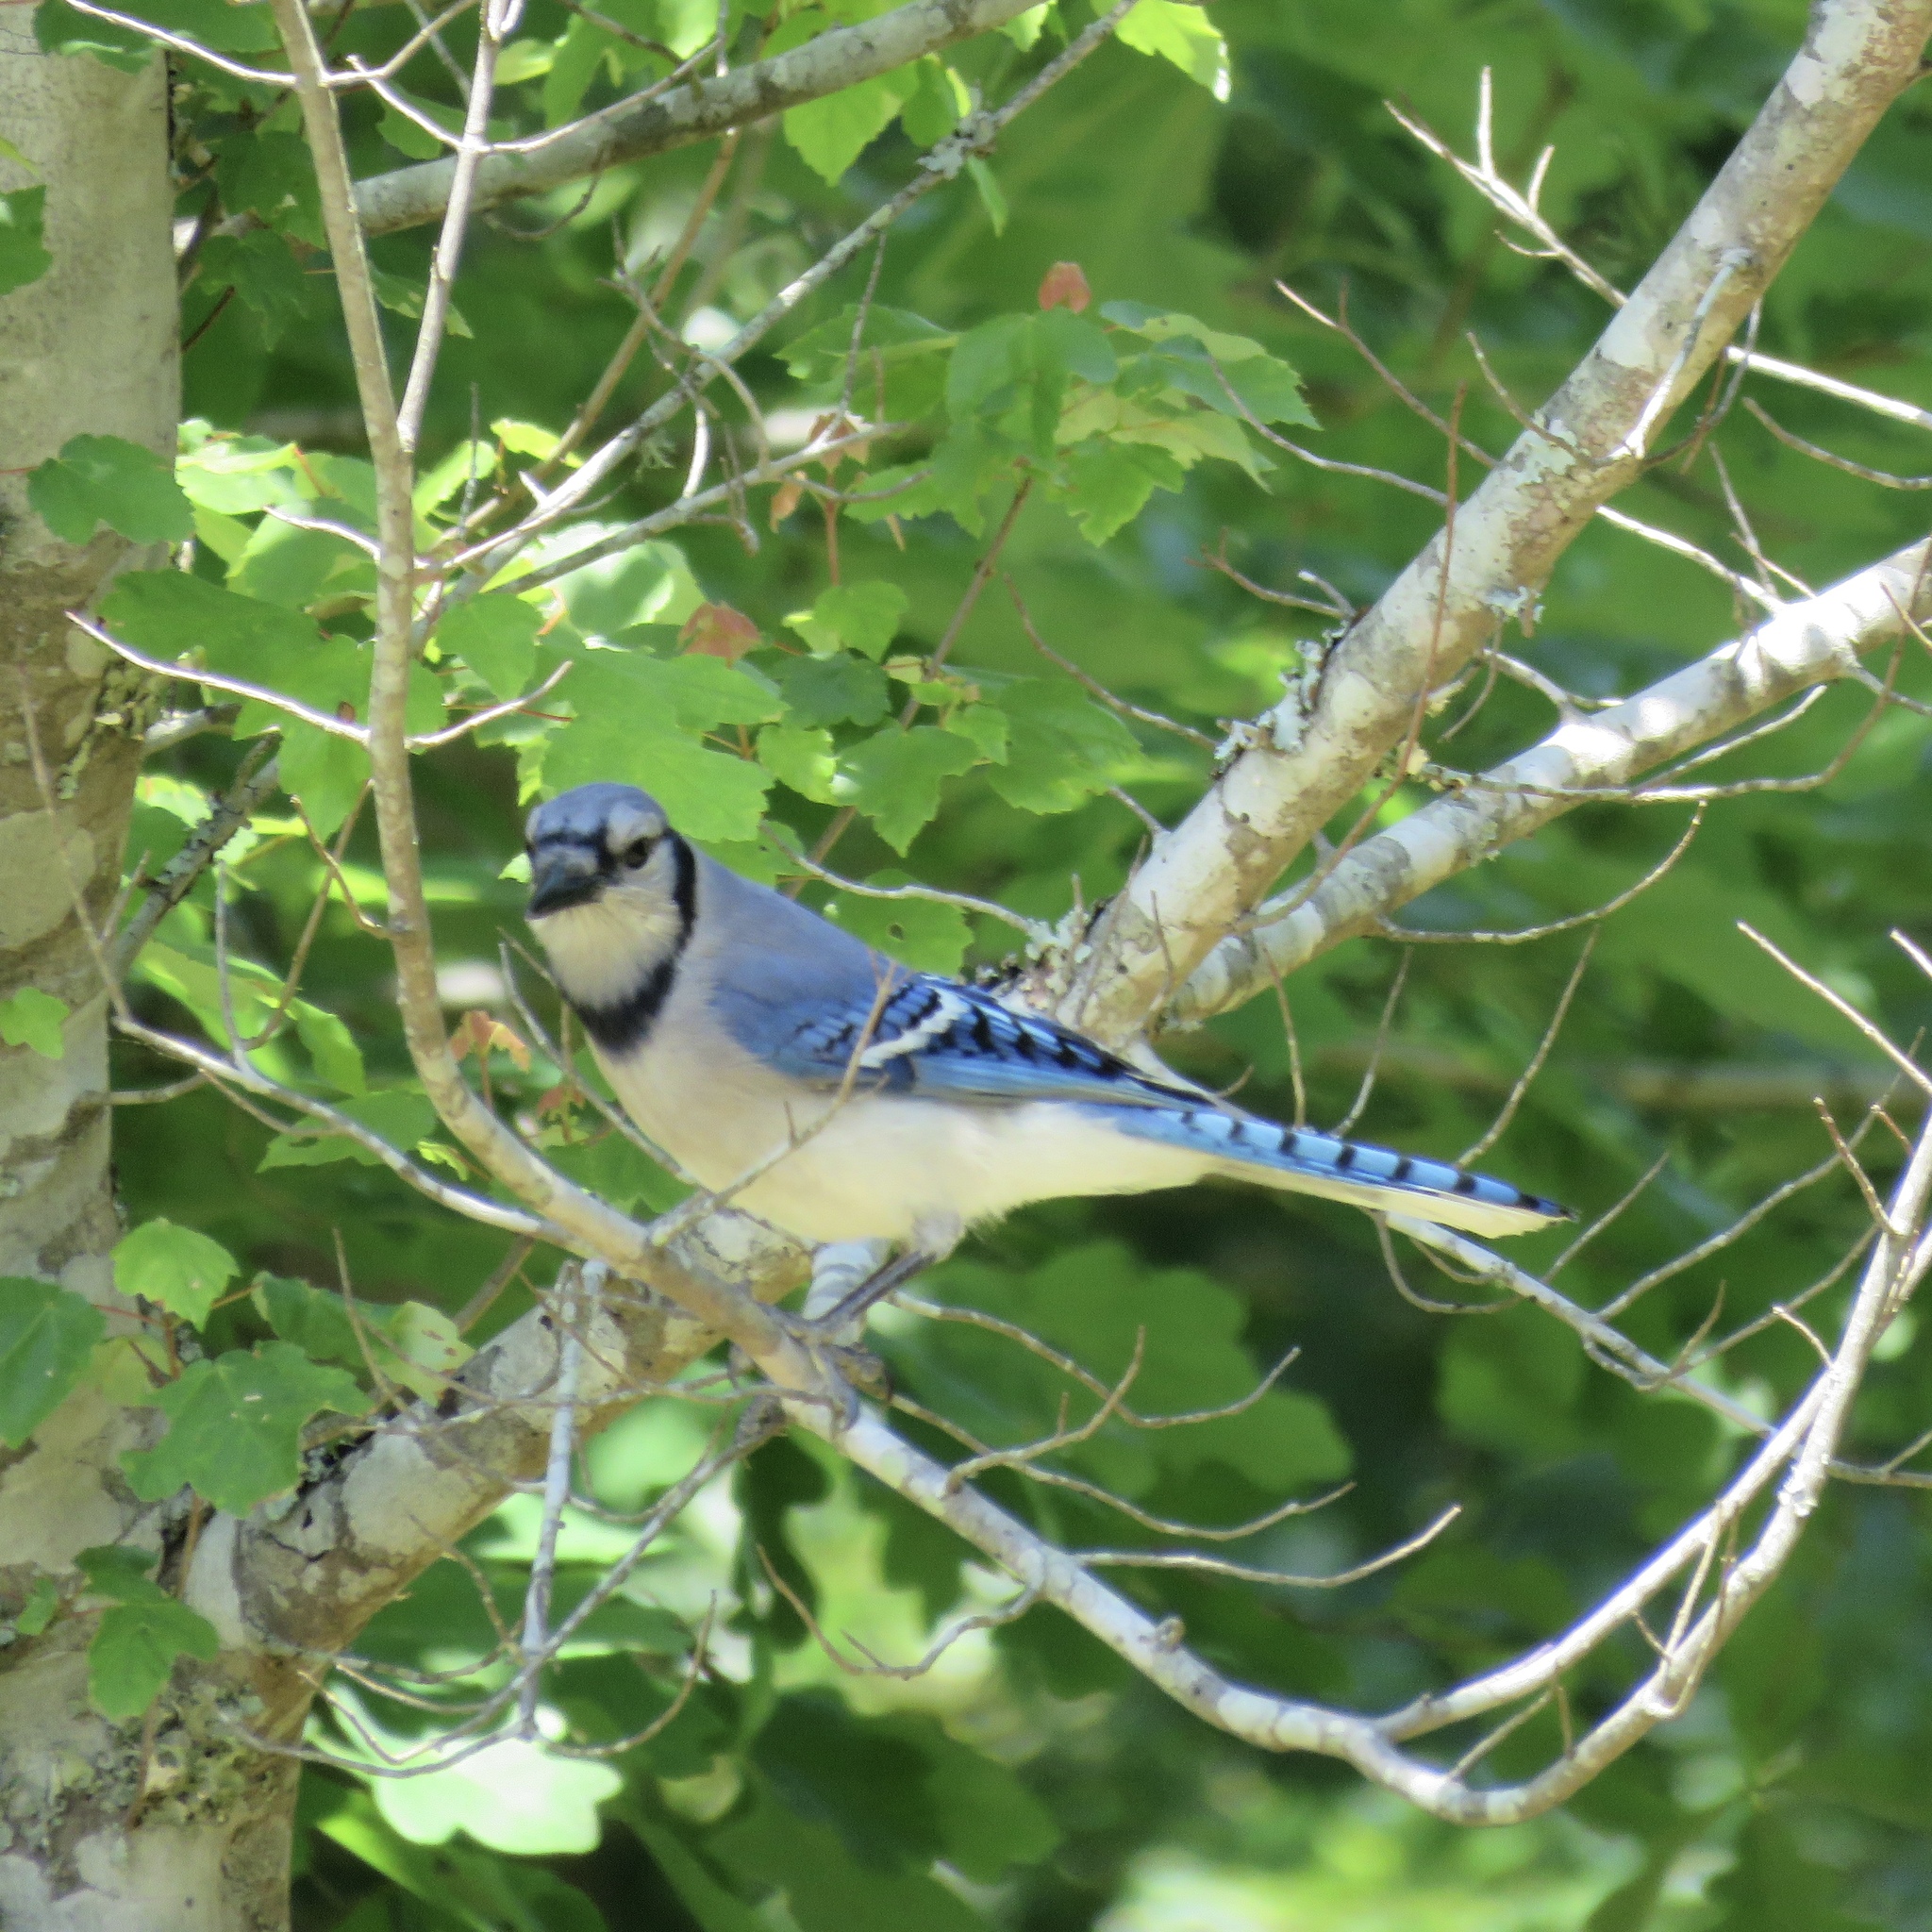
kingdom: Animalia
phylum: Chordata
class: Aves
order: Passeriformes
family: Corvidae
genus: Cyanocitta
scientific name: Cyanocitta cristata
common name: Blue jay
